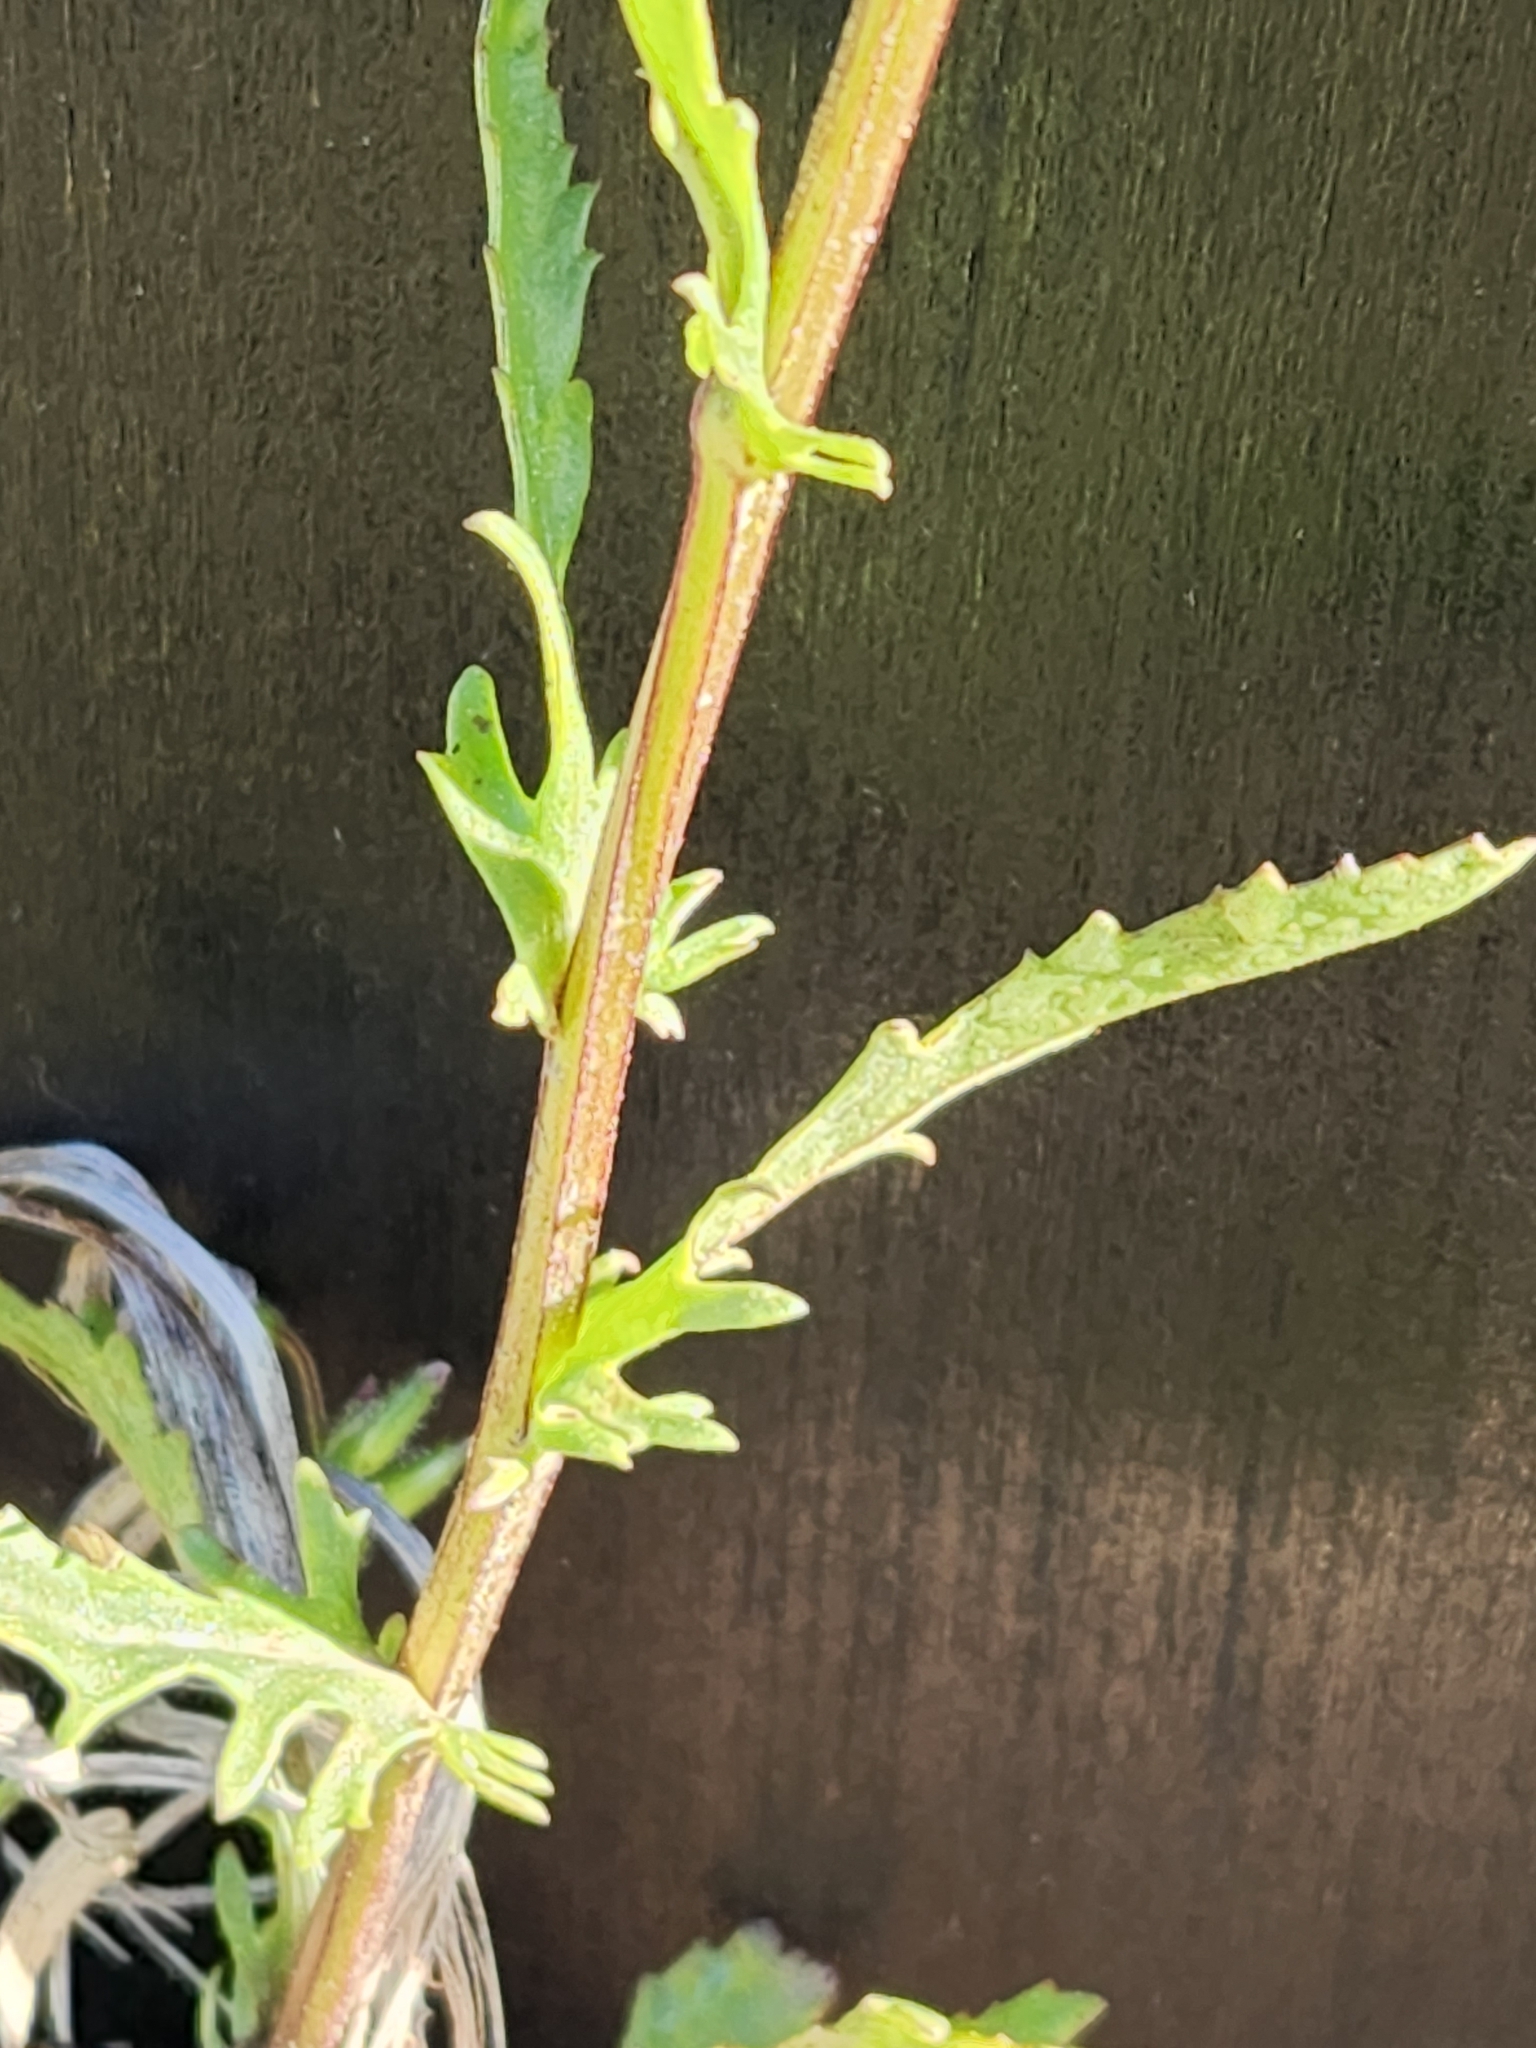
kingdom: Plantae
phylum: Tracheophyta
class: Magnoliopsida
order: Asterales
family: Asteraceae
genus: Leucanthemum
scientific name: Leucanthemum vulgare
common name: Oxeye daisy
